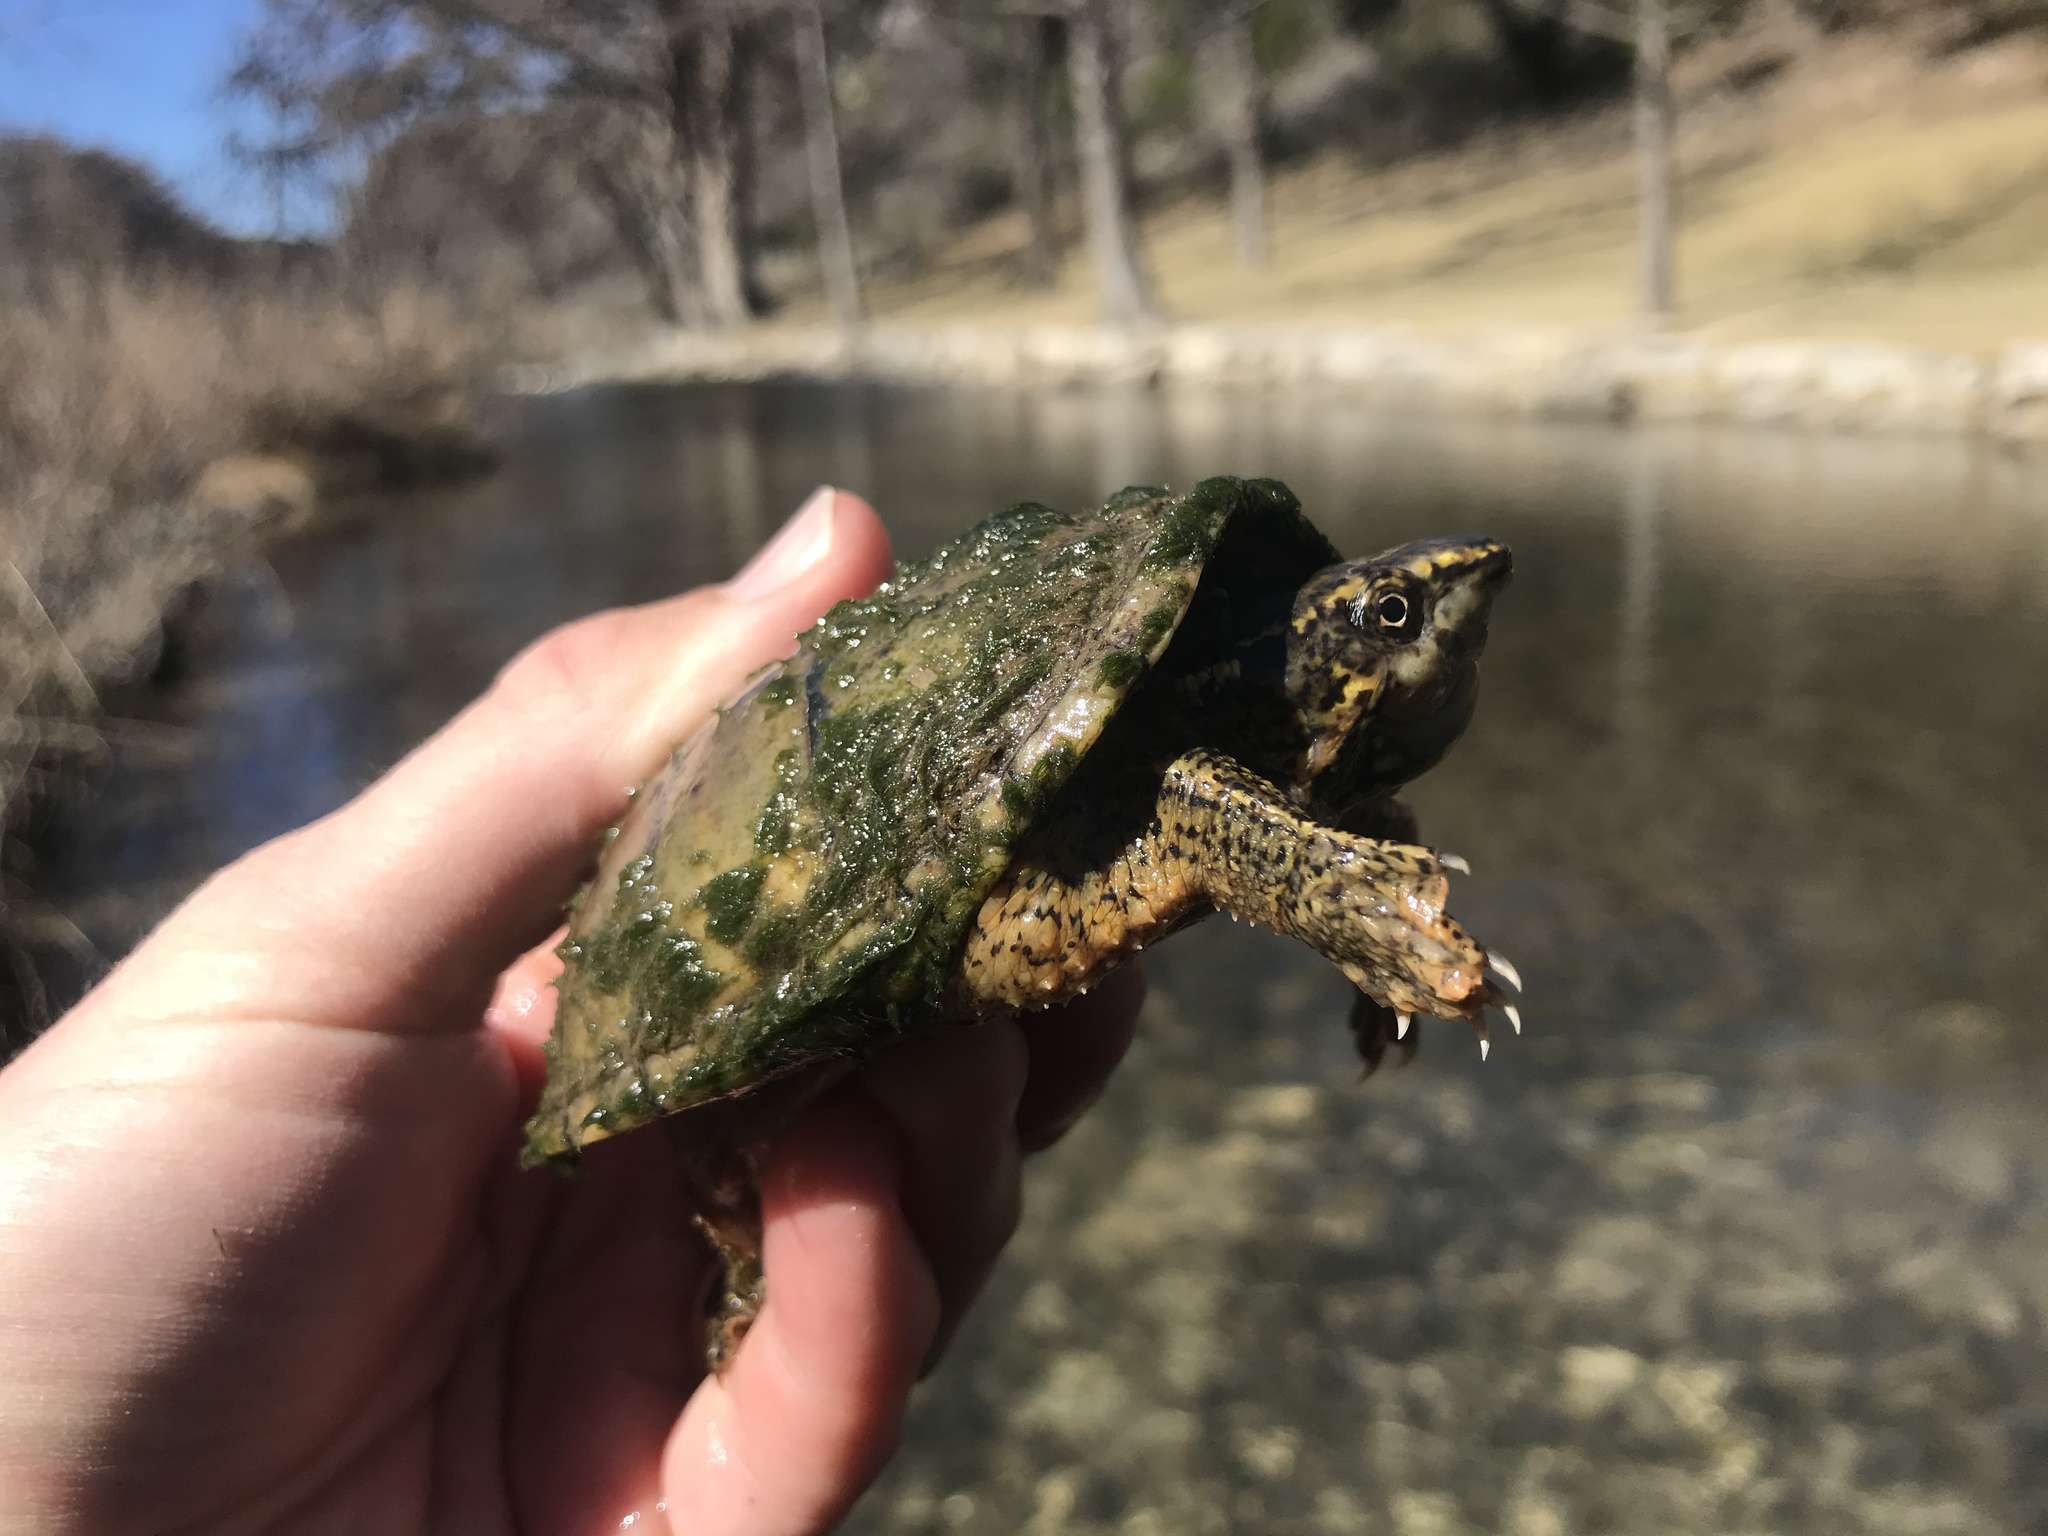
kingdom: Animalia
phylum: Chordata
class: Testudines
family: Kinosternidae
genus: Sternotherus
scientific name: Sternotherus odoratus
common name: Common musk turtle
